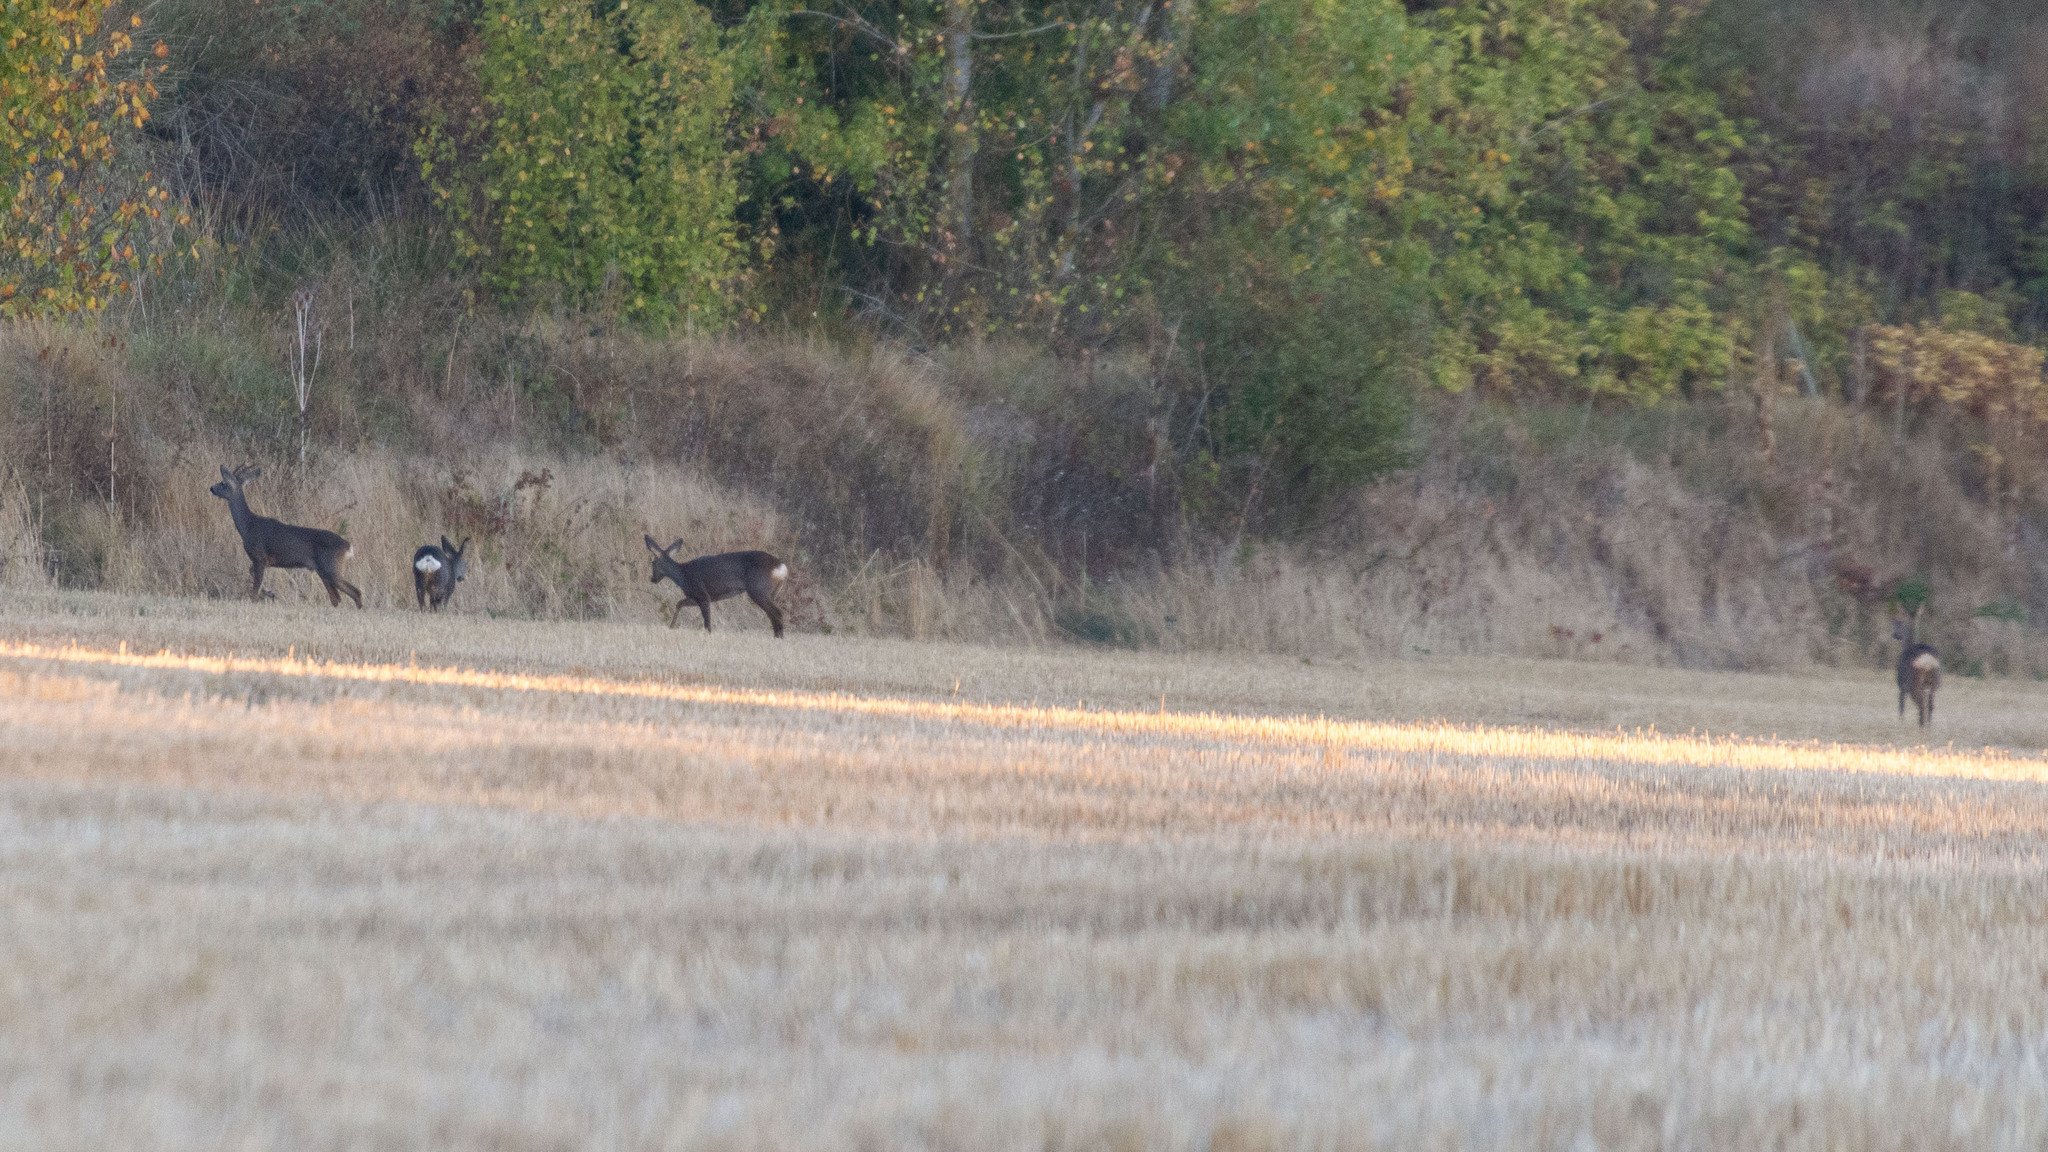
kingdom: Animalia
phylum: Chordata
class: Mammalia
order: Artiodactyla
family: Cervidae
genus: Capreolus
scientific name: Capreolus capreolus
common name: Western roe deer
